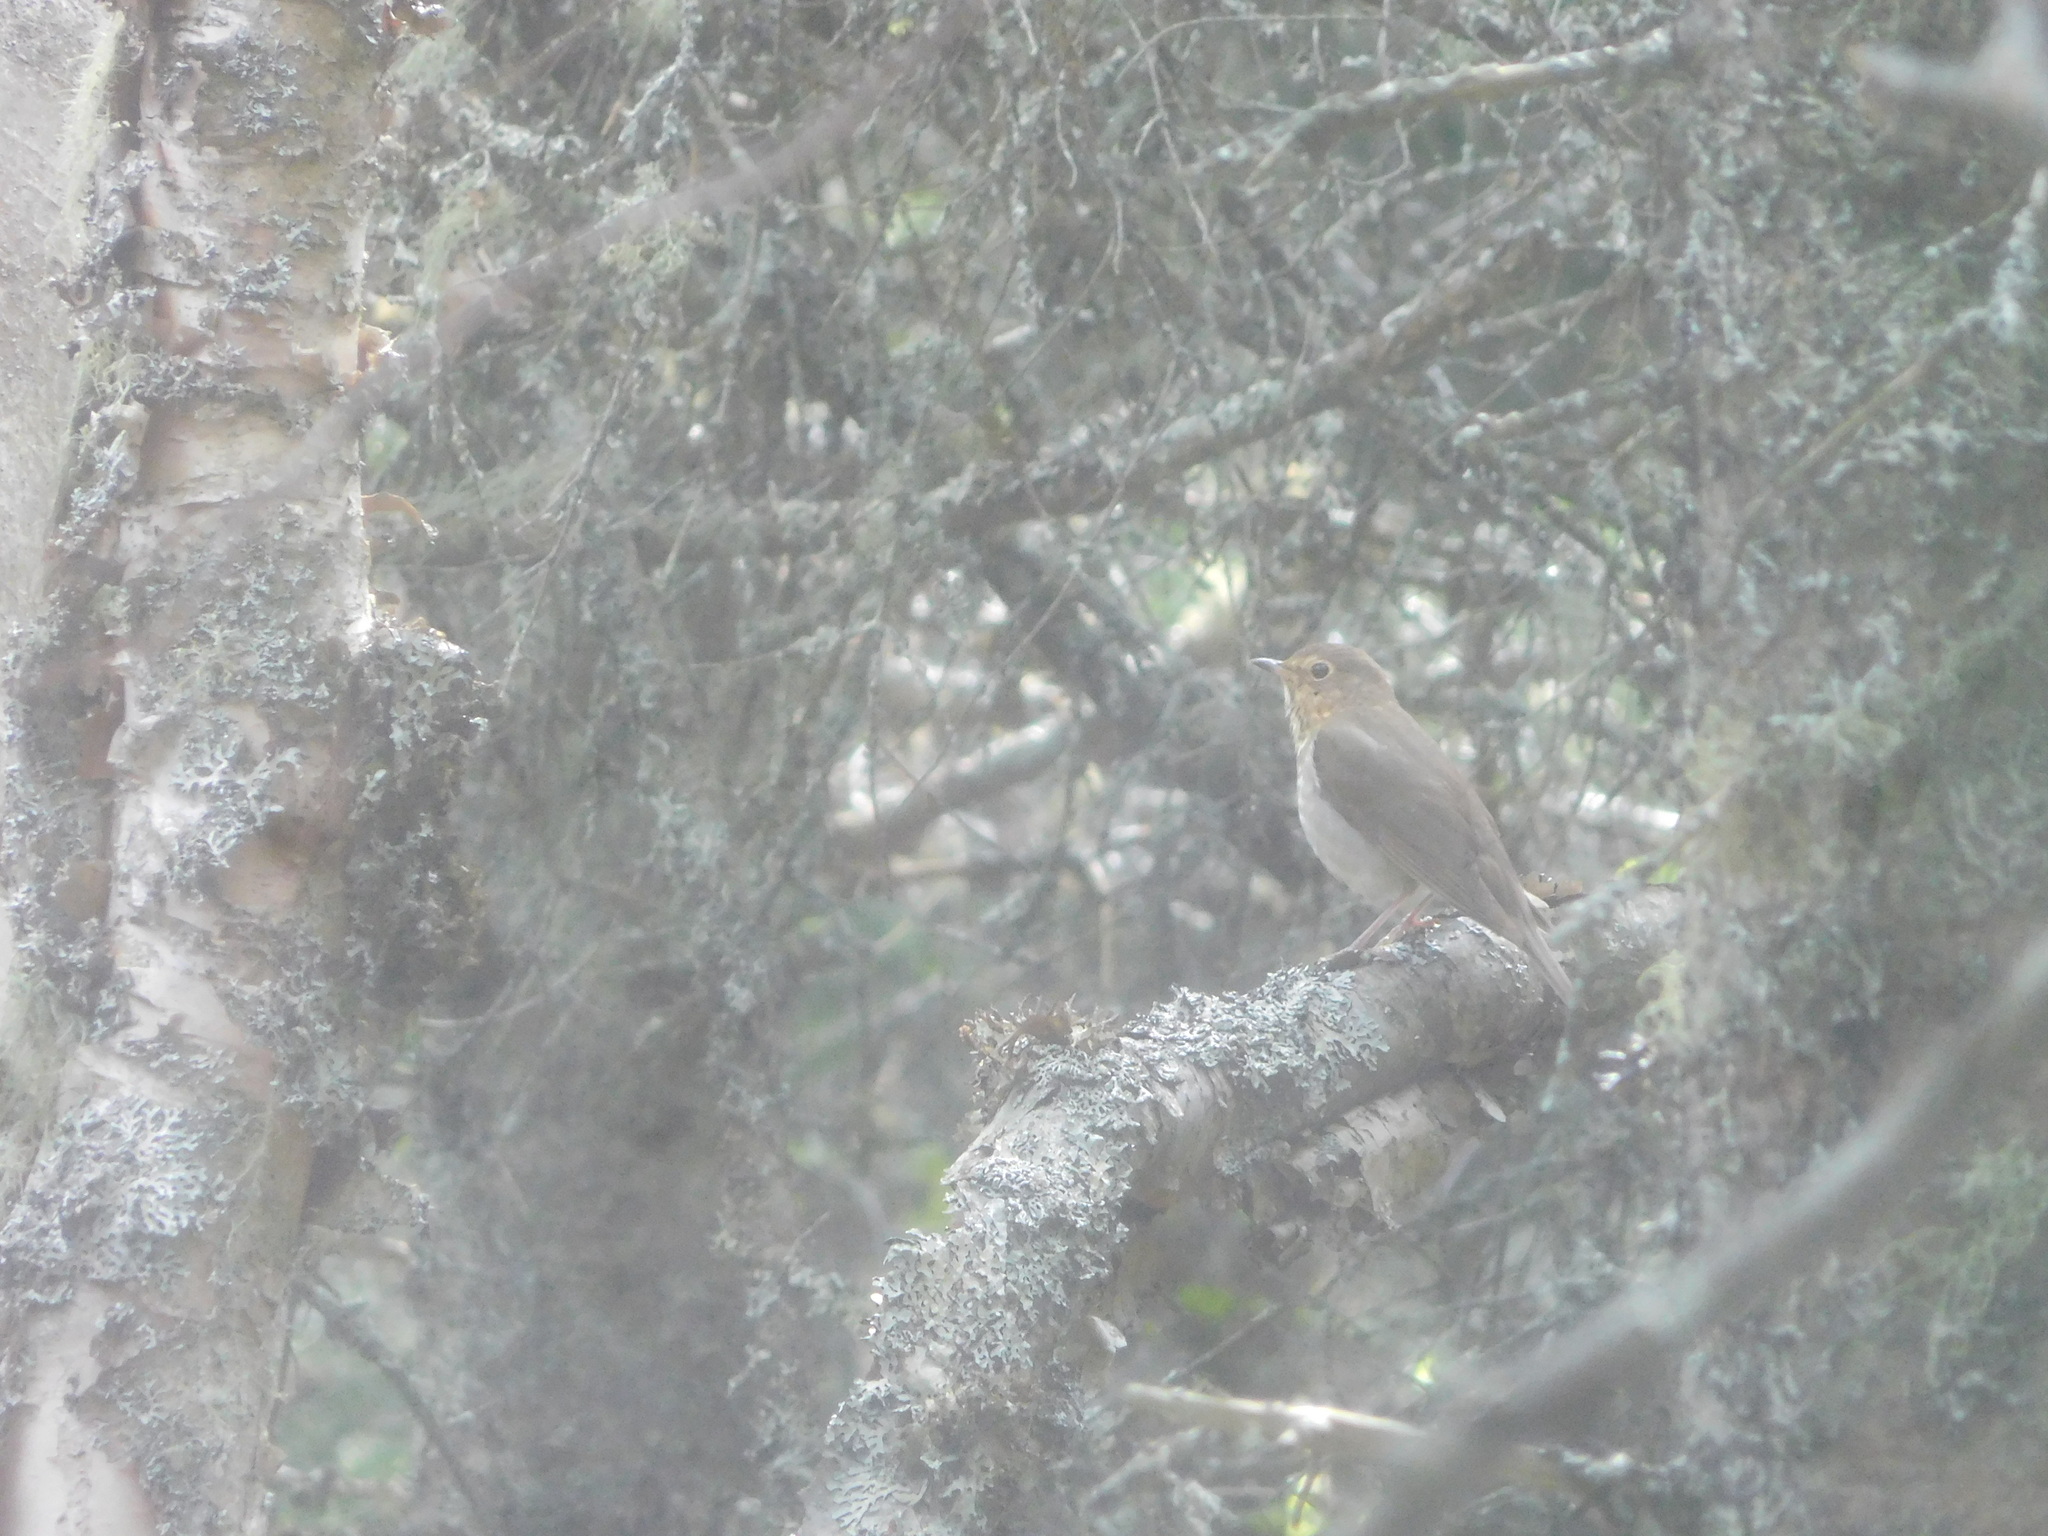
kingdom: Animalia
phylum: Chordata
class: Aves
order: Passeriformes
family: Turdidae
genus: Catharus
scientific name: Catharus ustulatus
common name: Swainson's thrush
